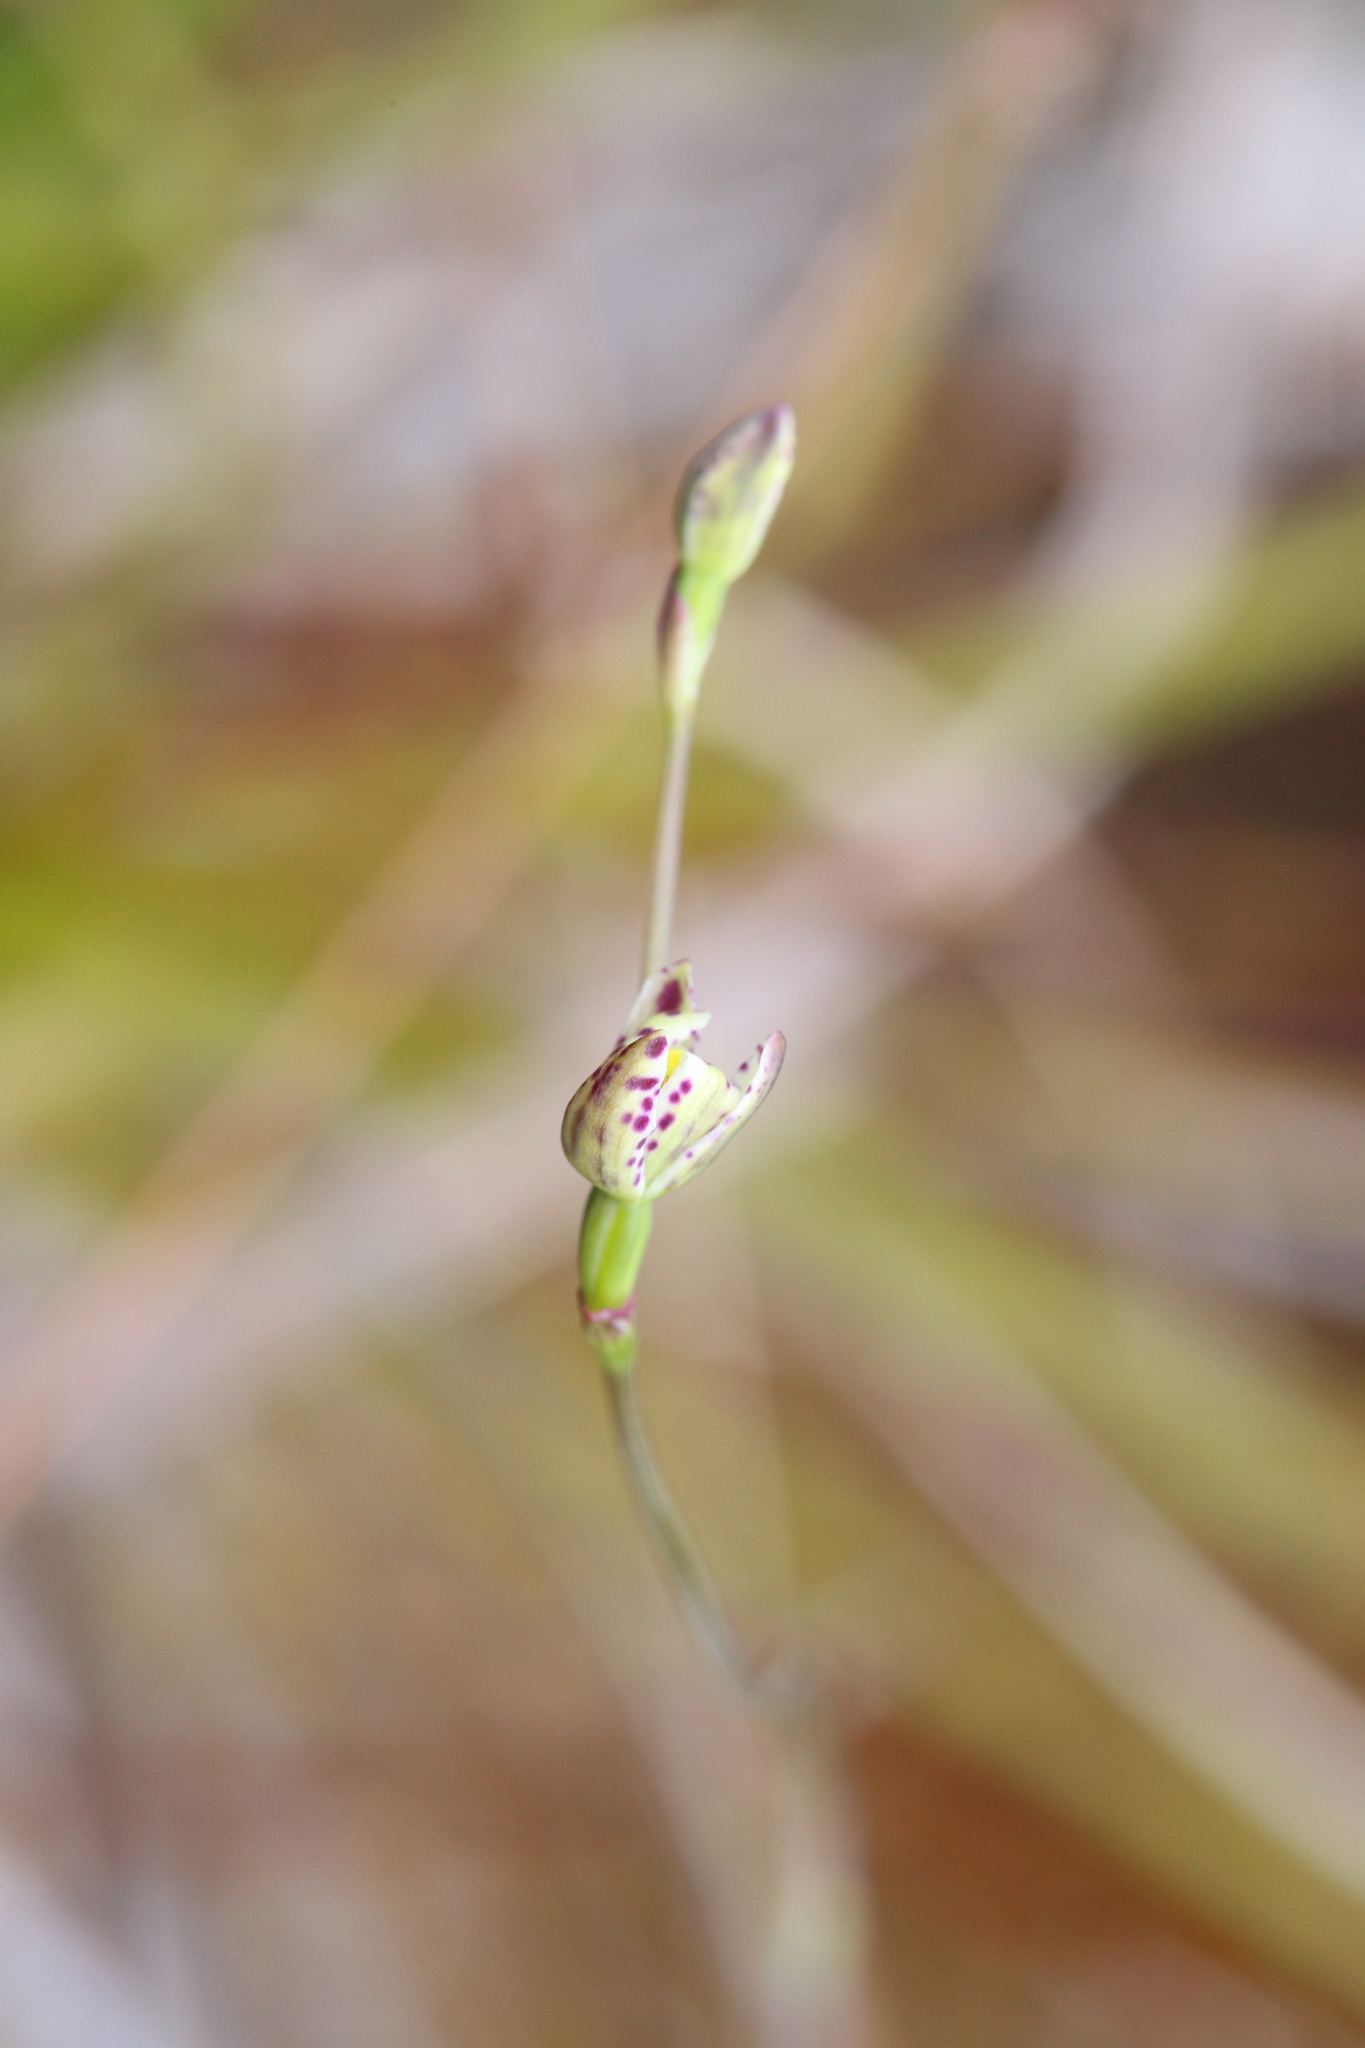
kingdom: Plantae
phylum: Tracheophyta
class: Liliopsida
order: Asparagales
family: Orchidaceae
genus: Thelymitra
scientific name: Thelymitra cucullata
